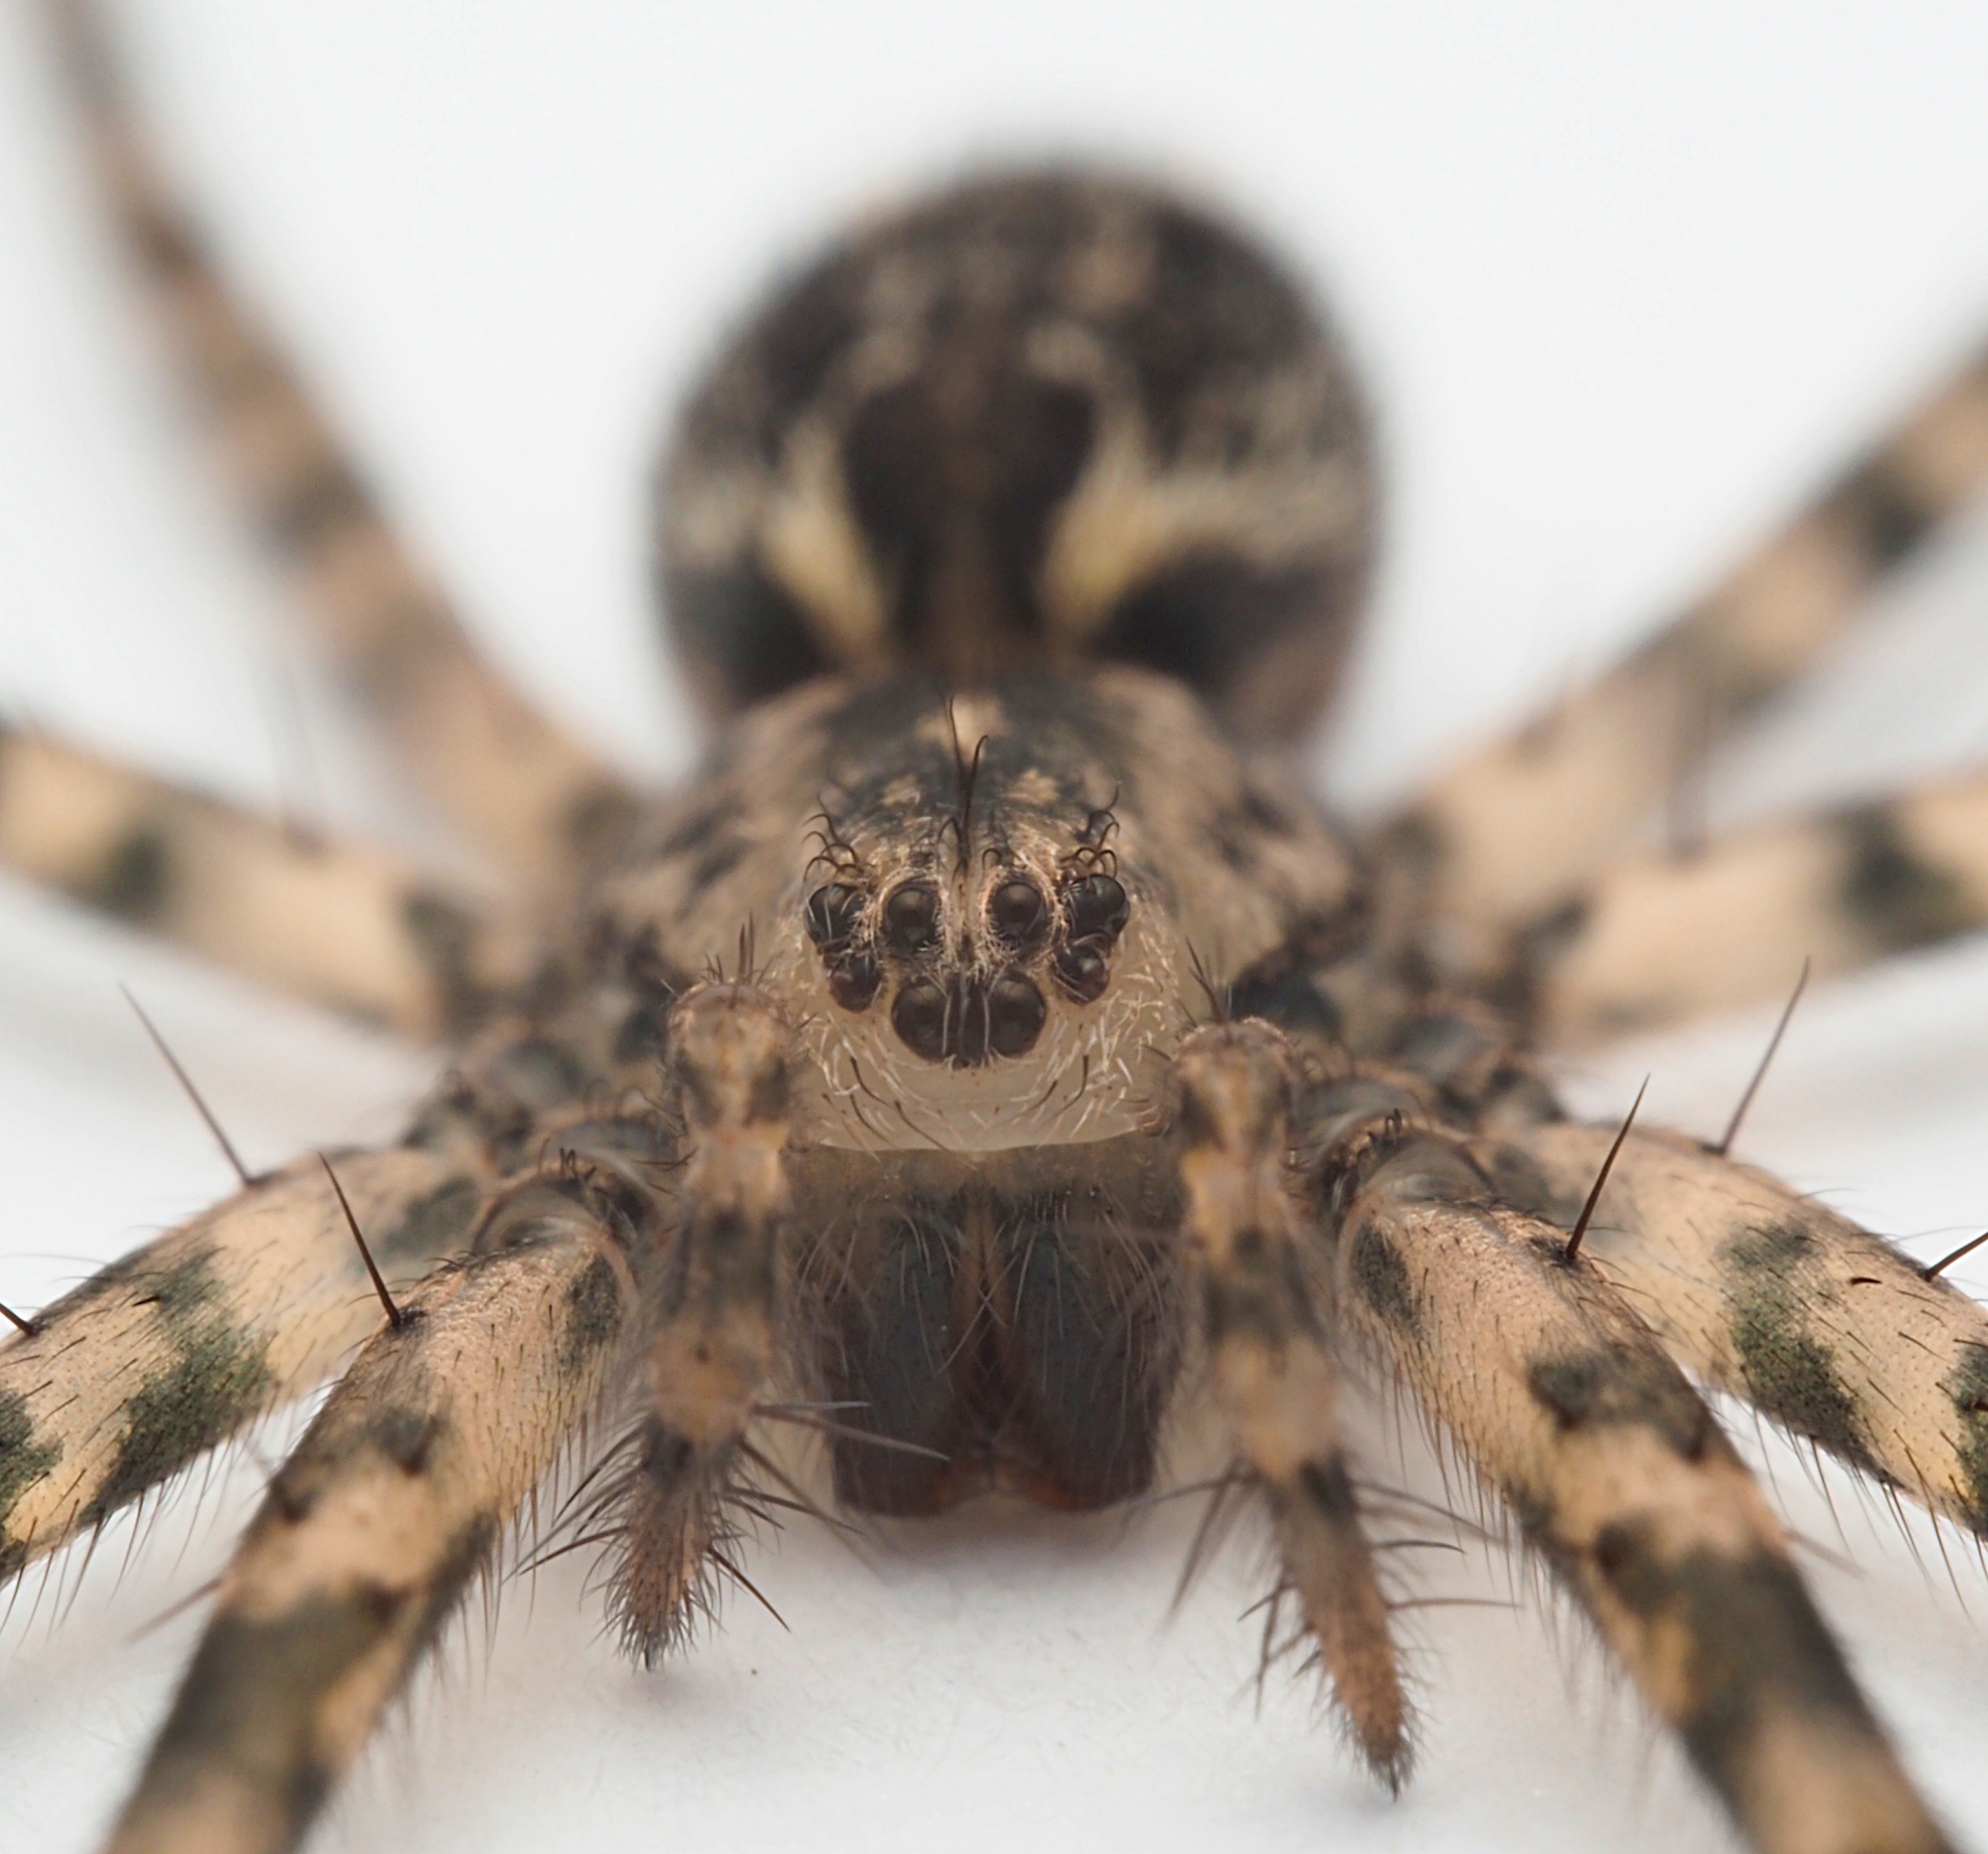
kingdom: Animalia
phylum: Arthropoda
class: Arachnida
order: Araneae
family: Stiphidiidae
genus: Stiphidion
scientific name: Stiphidion facetum
